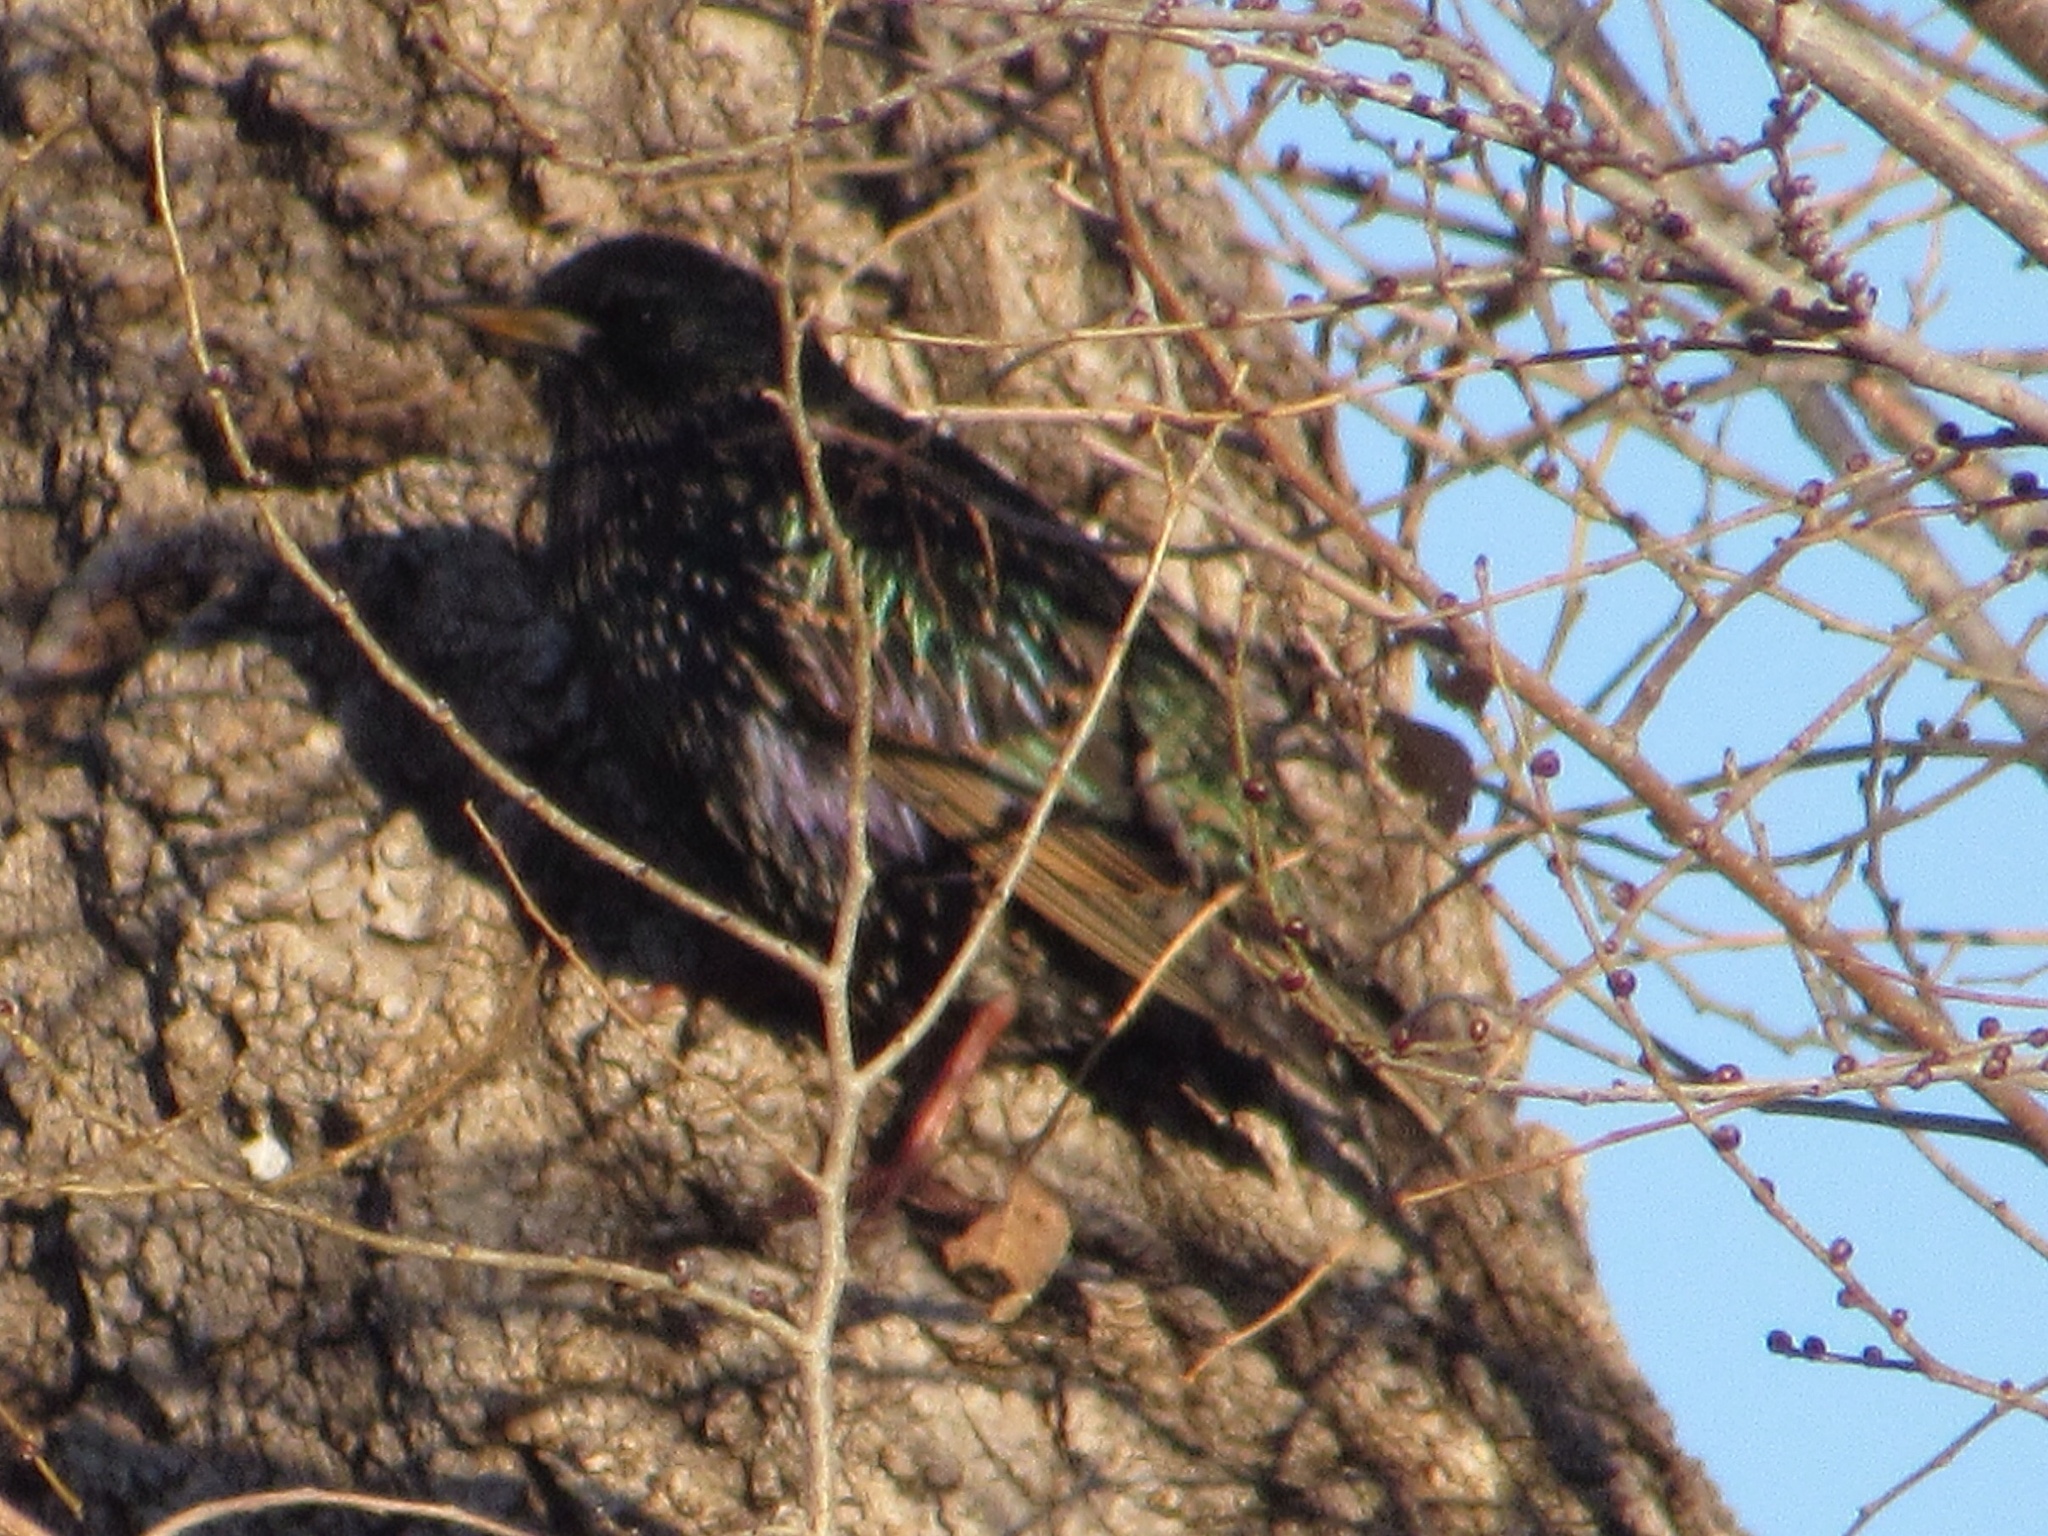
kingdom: Animalia
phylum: Chordata
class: Aves
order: Passeriformes
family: Sturnidae
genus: Sturnus
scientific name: Sturnus vulgaris
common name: Common starling
